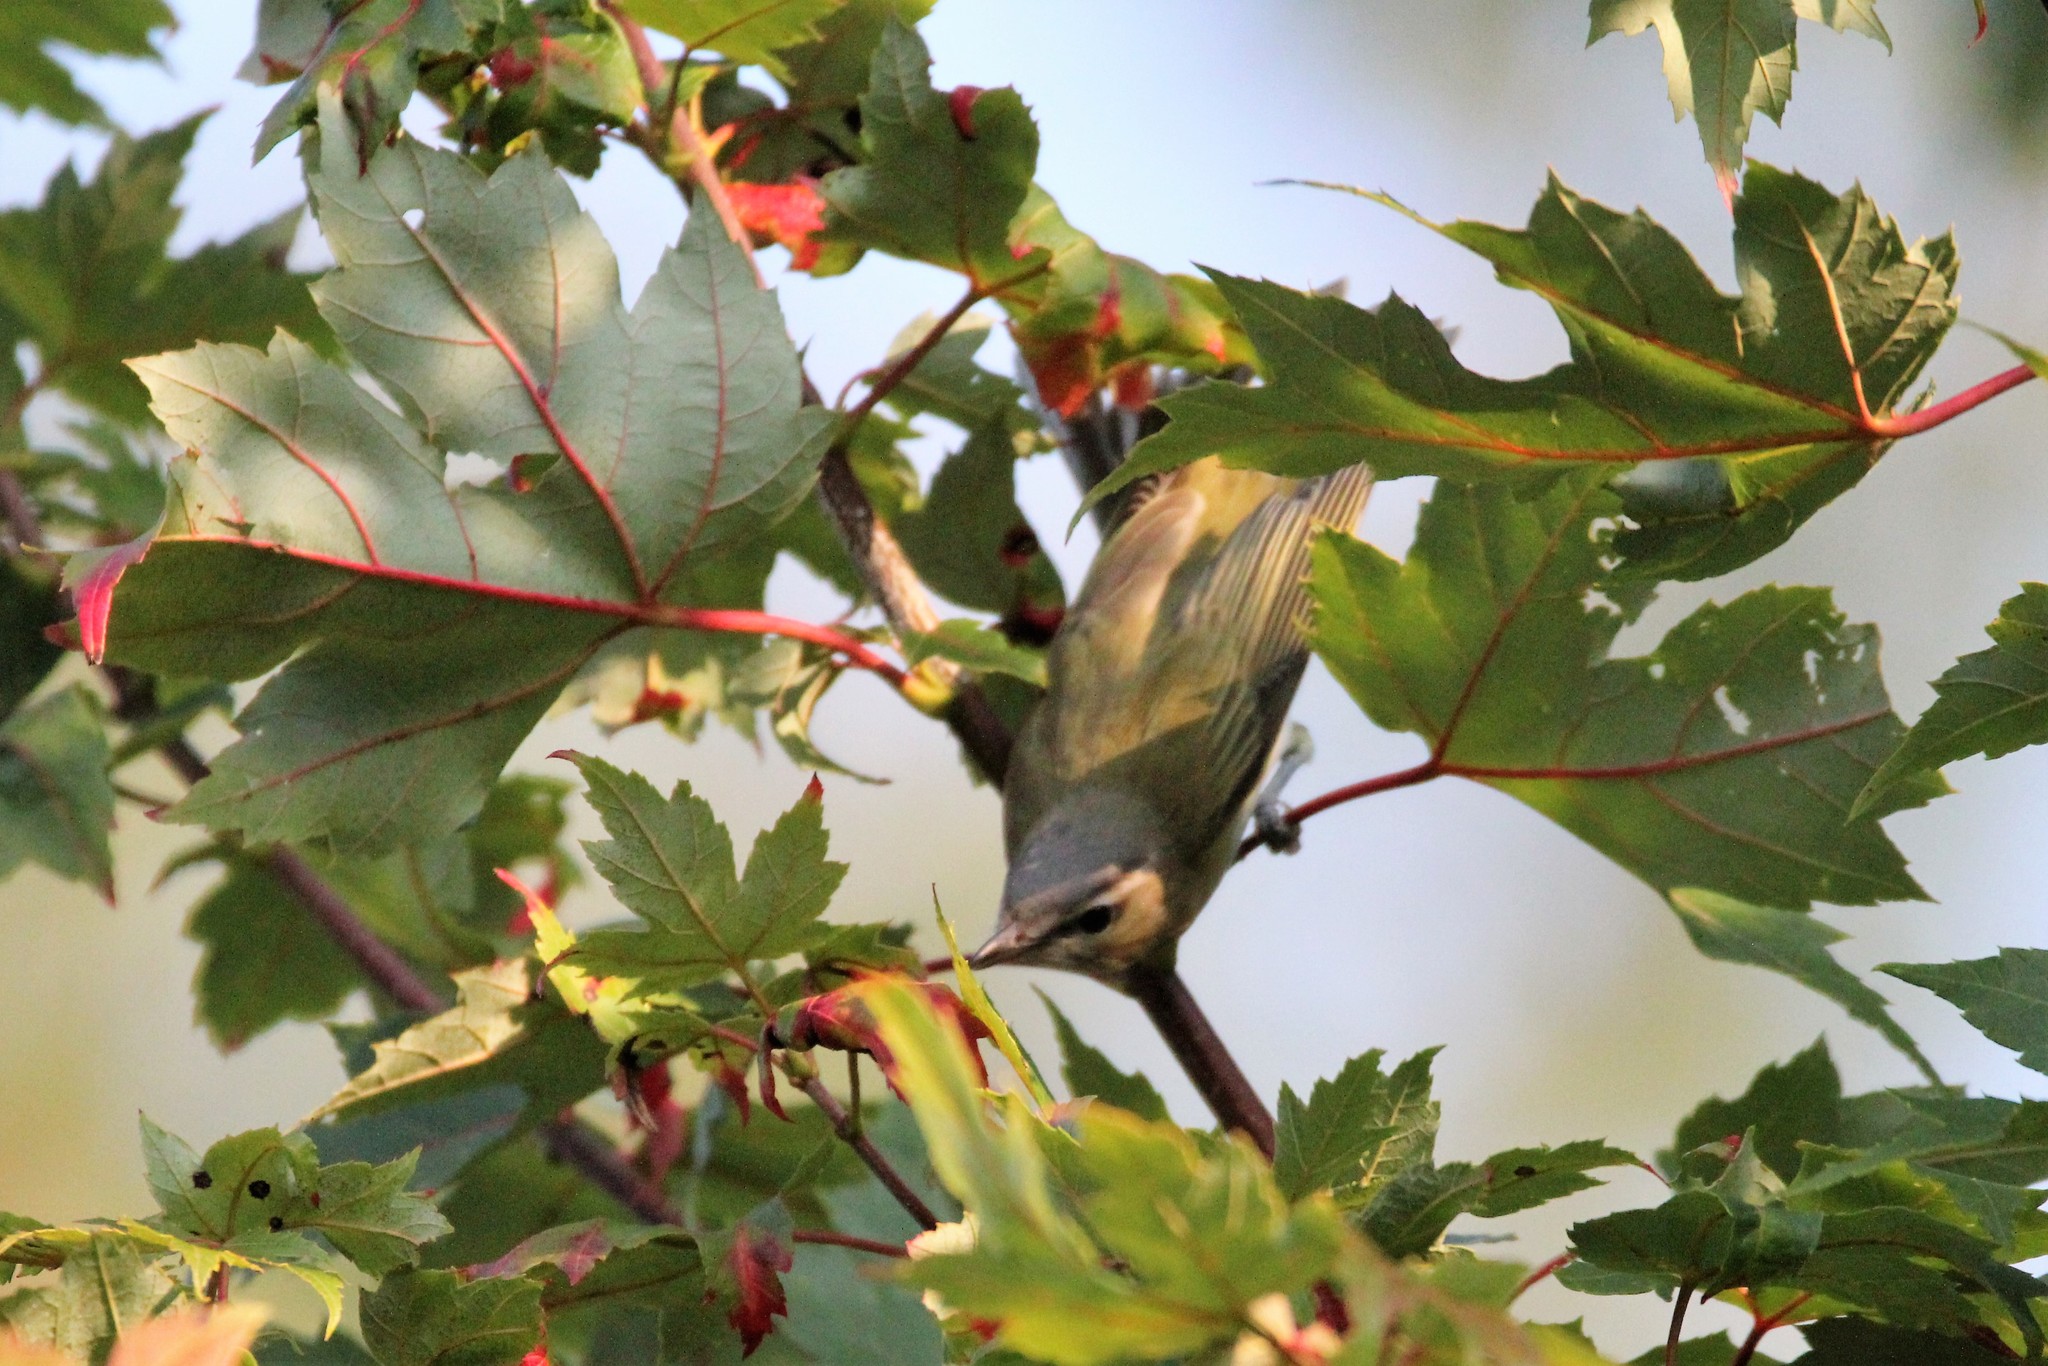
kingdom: Animalia
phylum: Chordata
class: Aves
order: Passeriformes
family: Vireonidae
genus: Vireo
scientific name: Vireo olivaceus
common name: Red-eyed vireo
